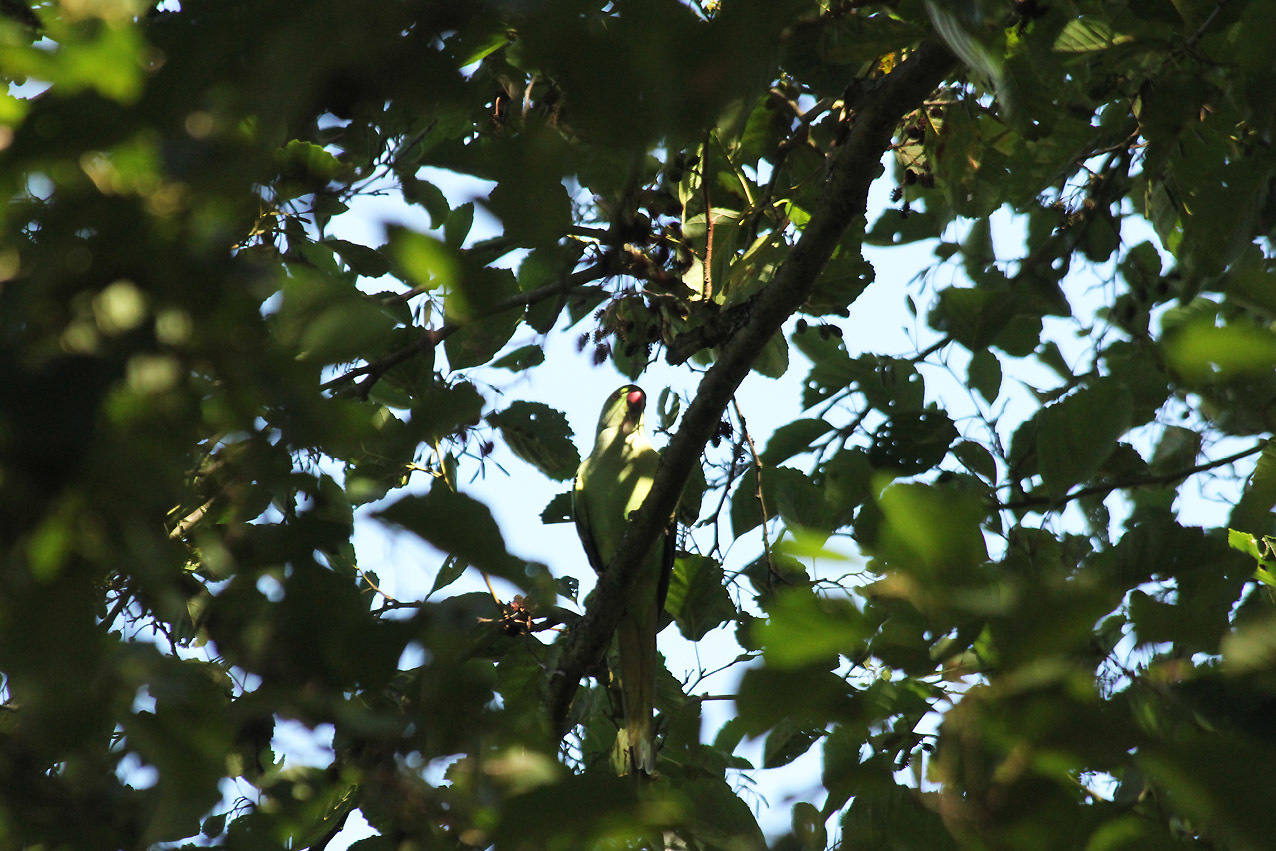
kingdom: Animalia
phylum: Chordata
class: Aves
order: Psittaciformes
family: Psittacidae
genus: Psittacula
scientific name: Psittacula krameri
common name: Rose-ringed parakeet
